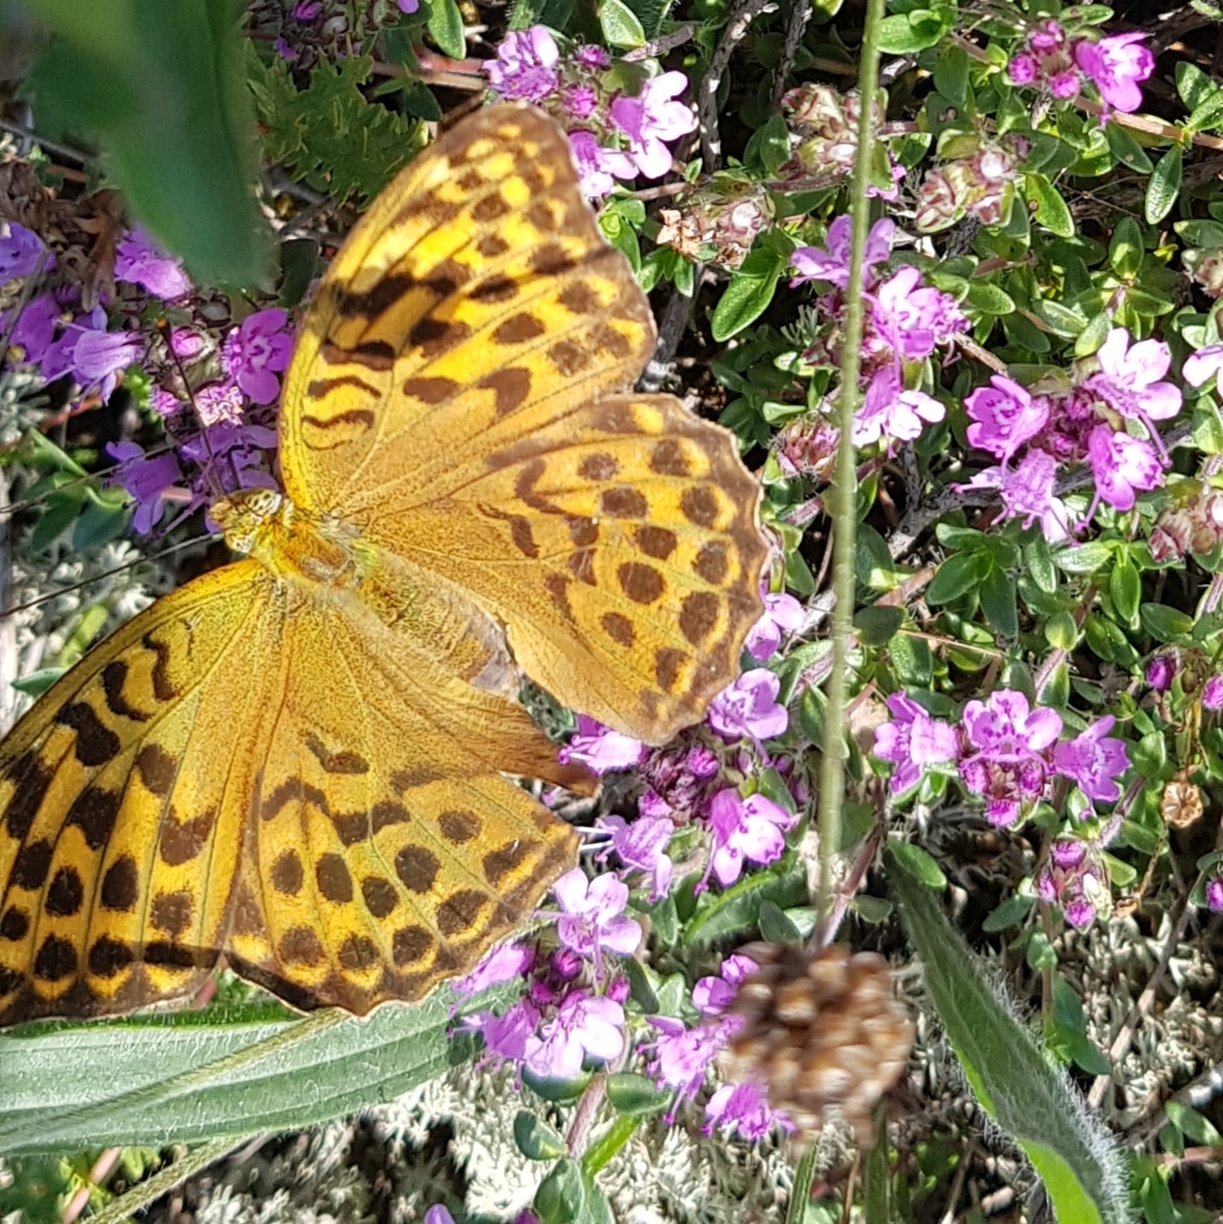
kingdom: Animalia
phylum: Arthropoda
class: Insecta
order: Lepidoptera
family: Nymphalidae
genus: Argynnis
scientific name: Argynnis paphia
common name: Silver-washed fritillary
